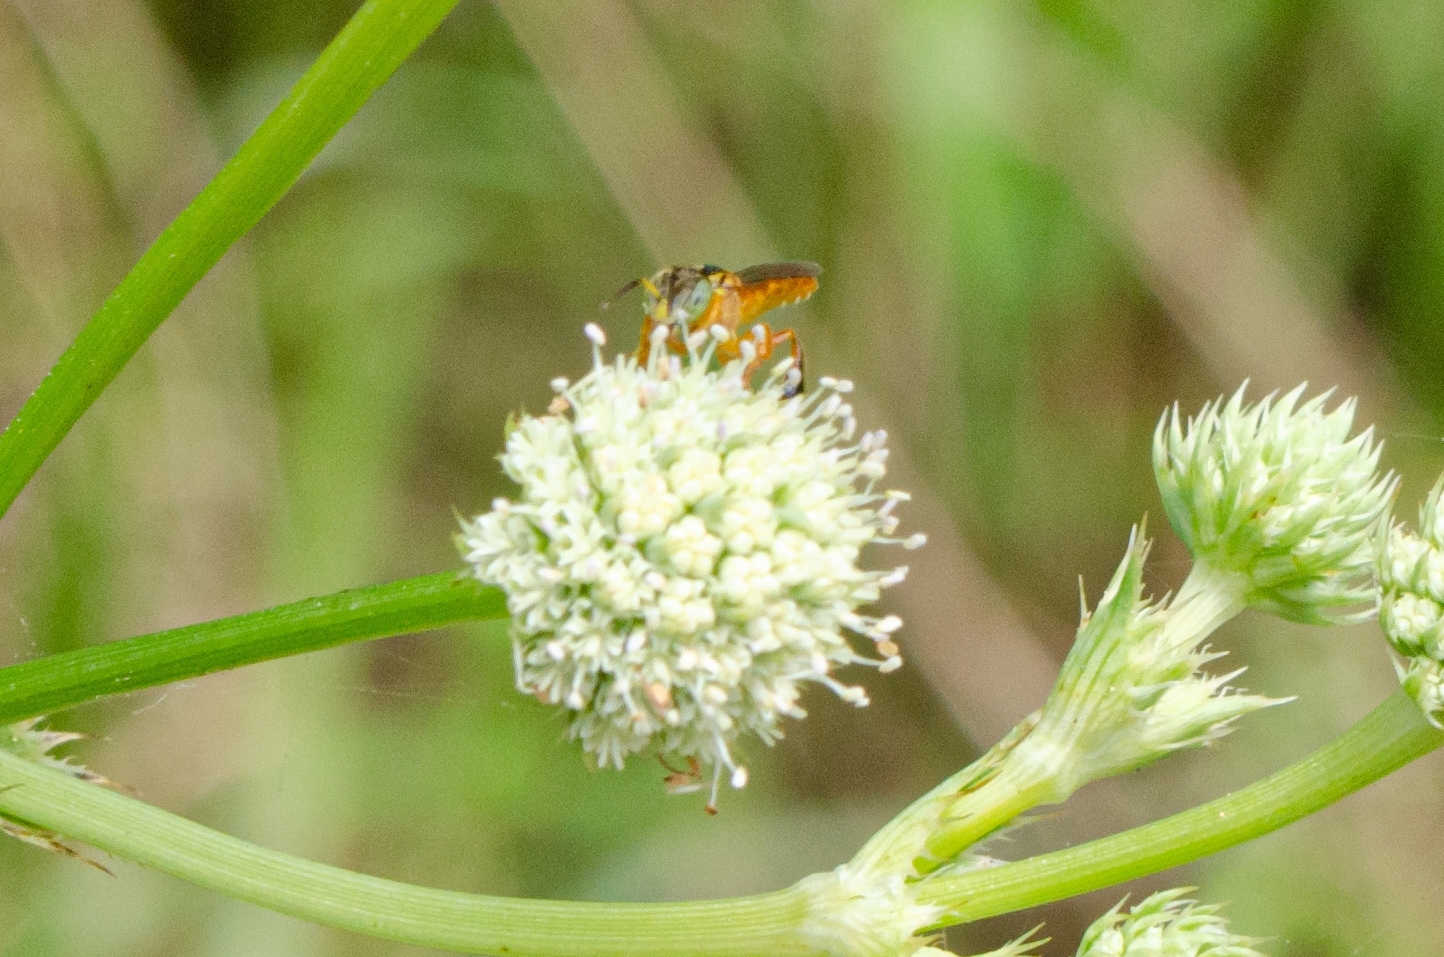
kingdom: Animalia
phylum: Arthropoda
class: Insecta
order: Hymenoptera
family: Apidae
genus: Tetragonisca
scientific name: Tetragonisca fiebrigi
